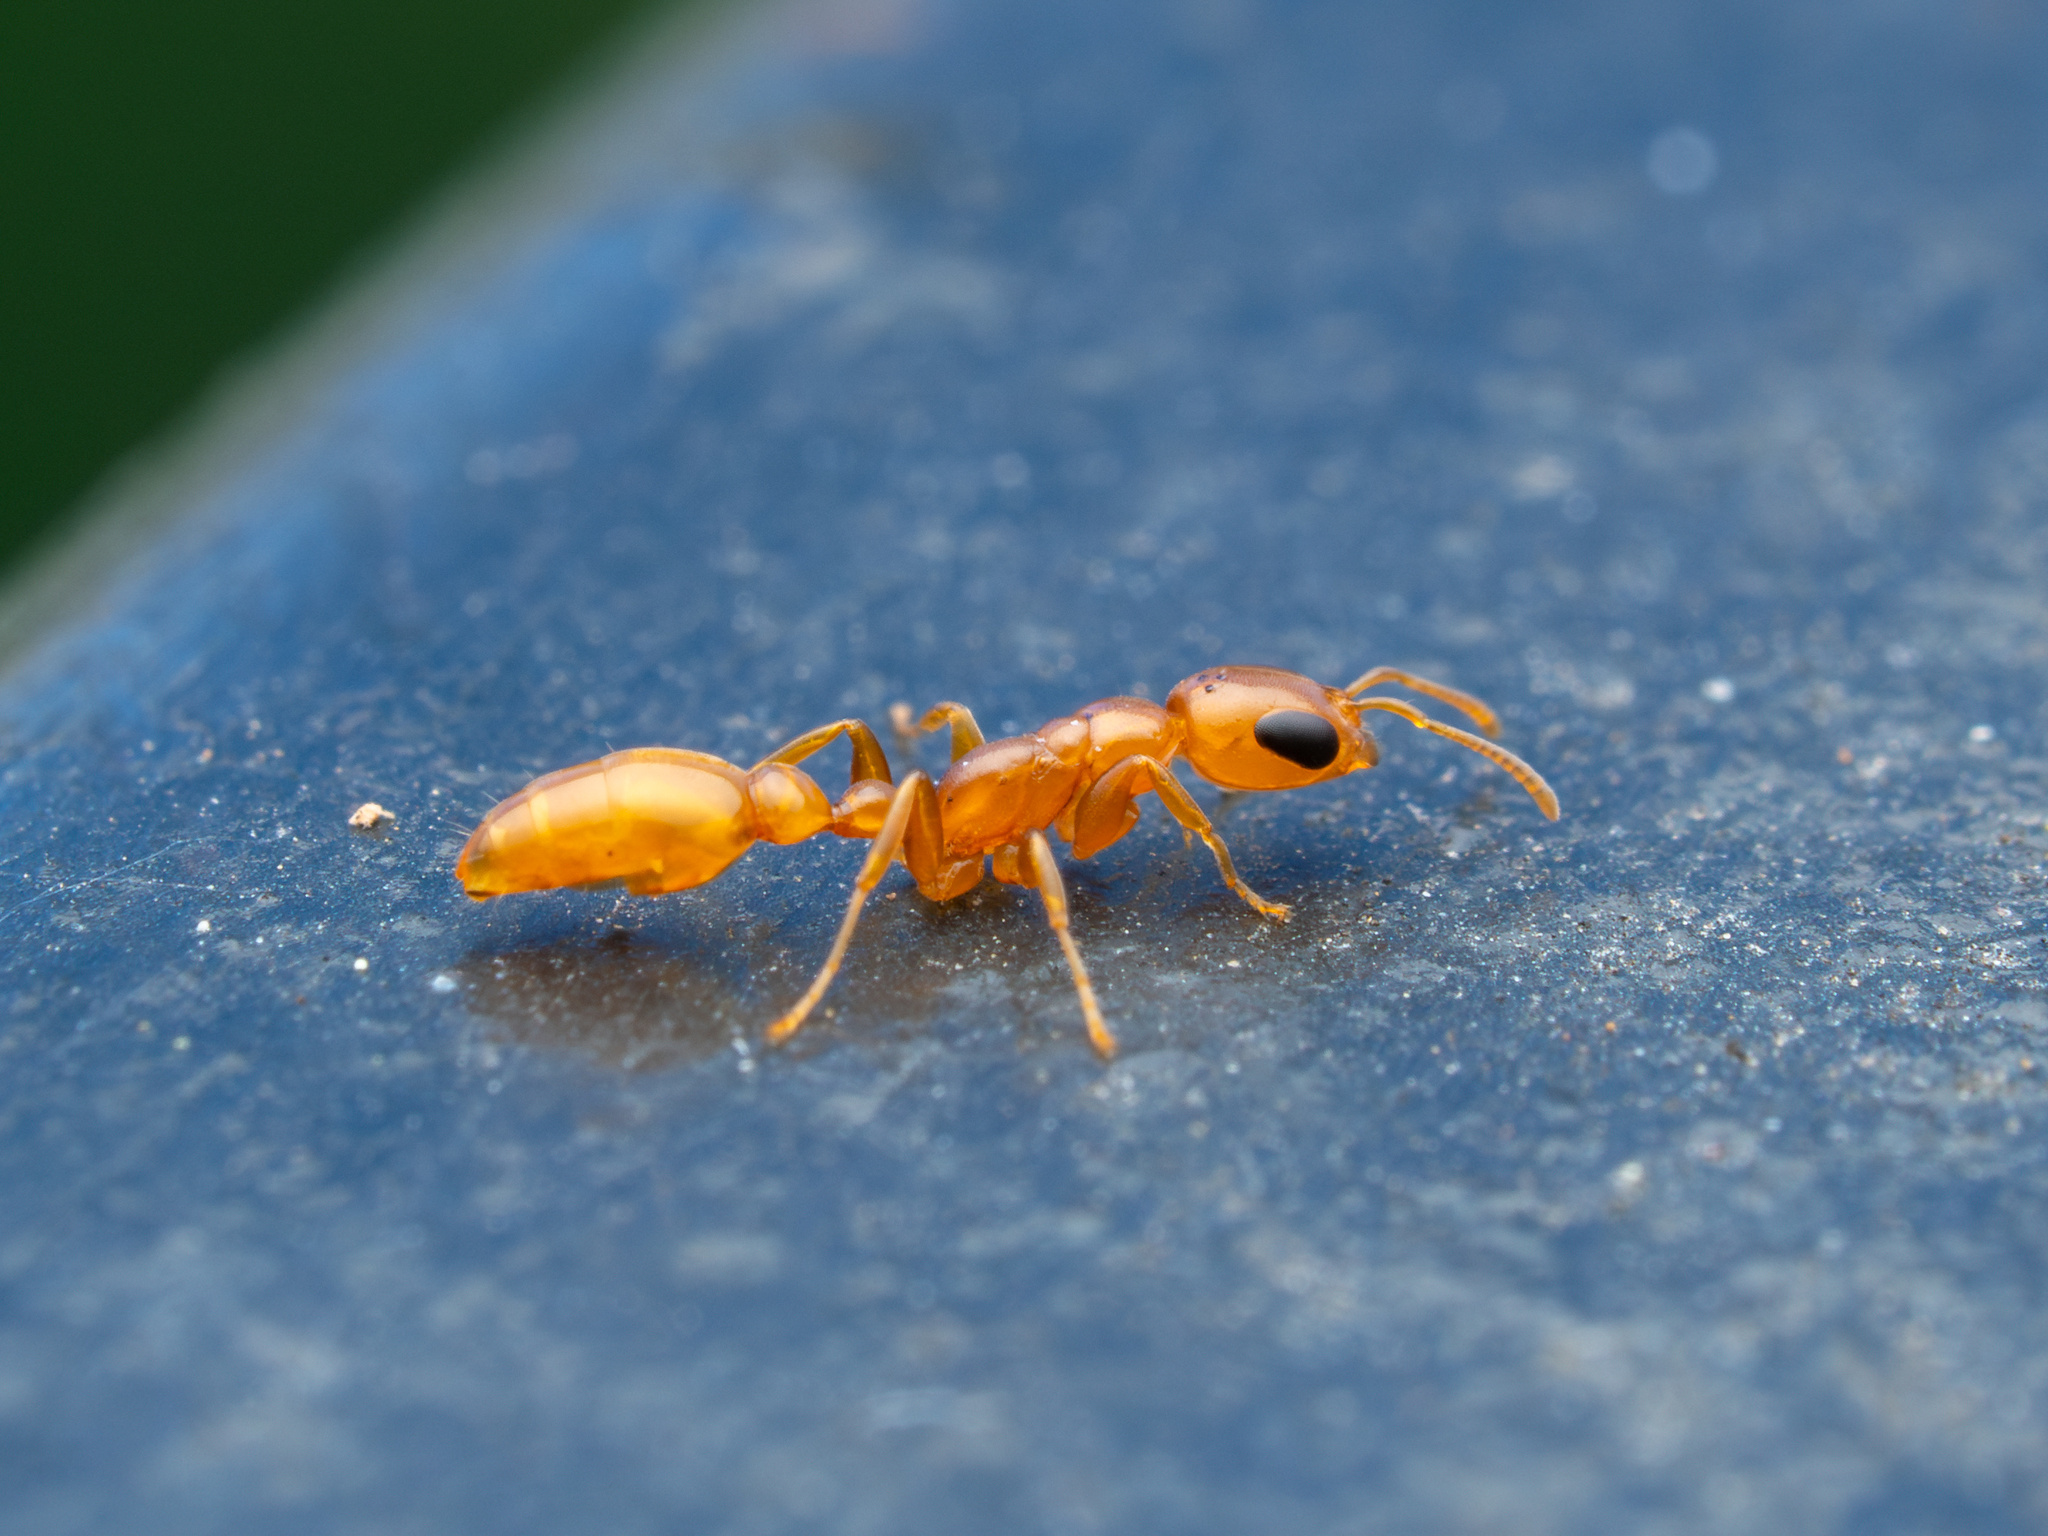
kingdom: Animalia
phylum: Arthropoda
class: Insecta
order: Hymenoptera
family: Formicidae
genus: Pseudomyrmex
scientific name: Pseudomyrmex pallidus
